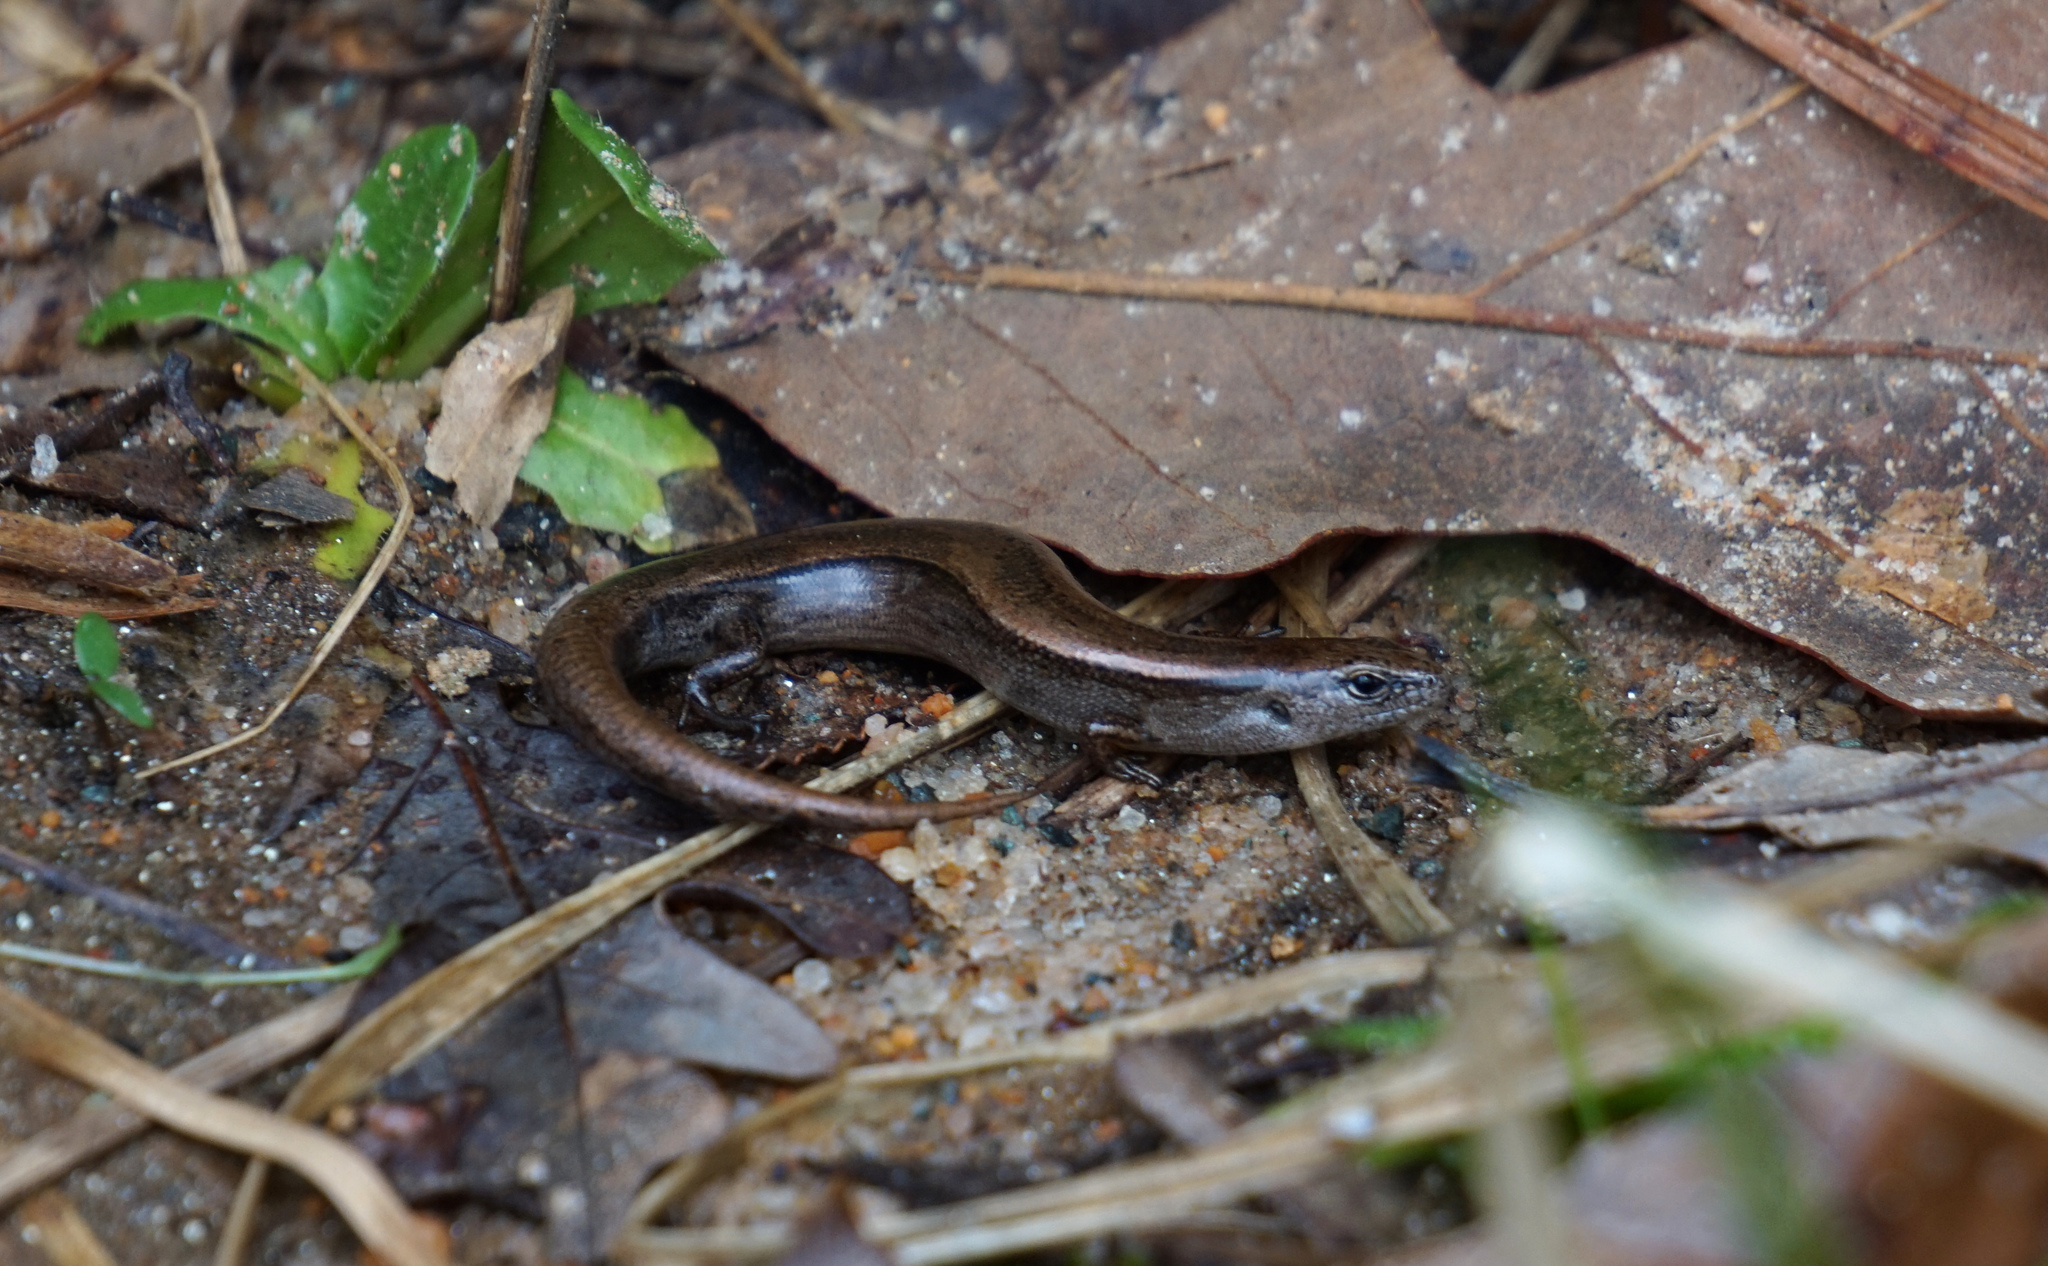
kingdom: Animalia
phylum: Chordata
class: Squamata
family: Scincidae
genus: Scincella
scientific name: Scincella lateralis
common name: Ground skink
